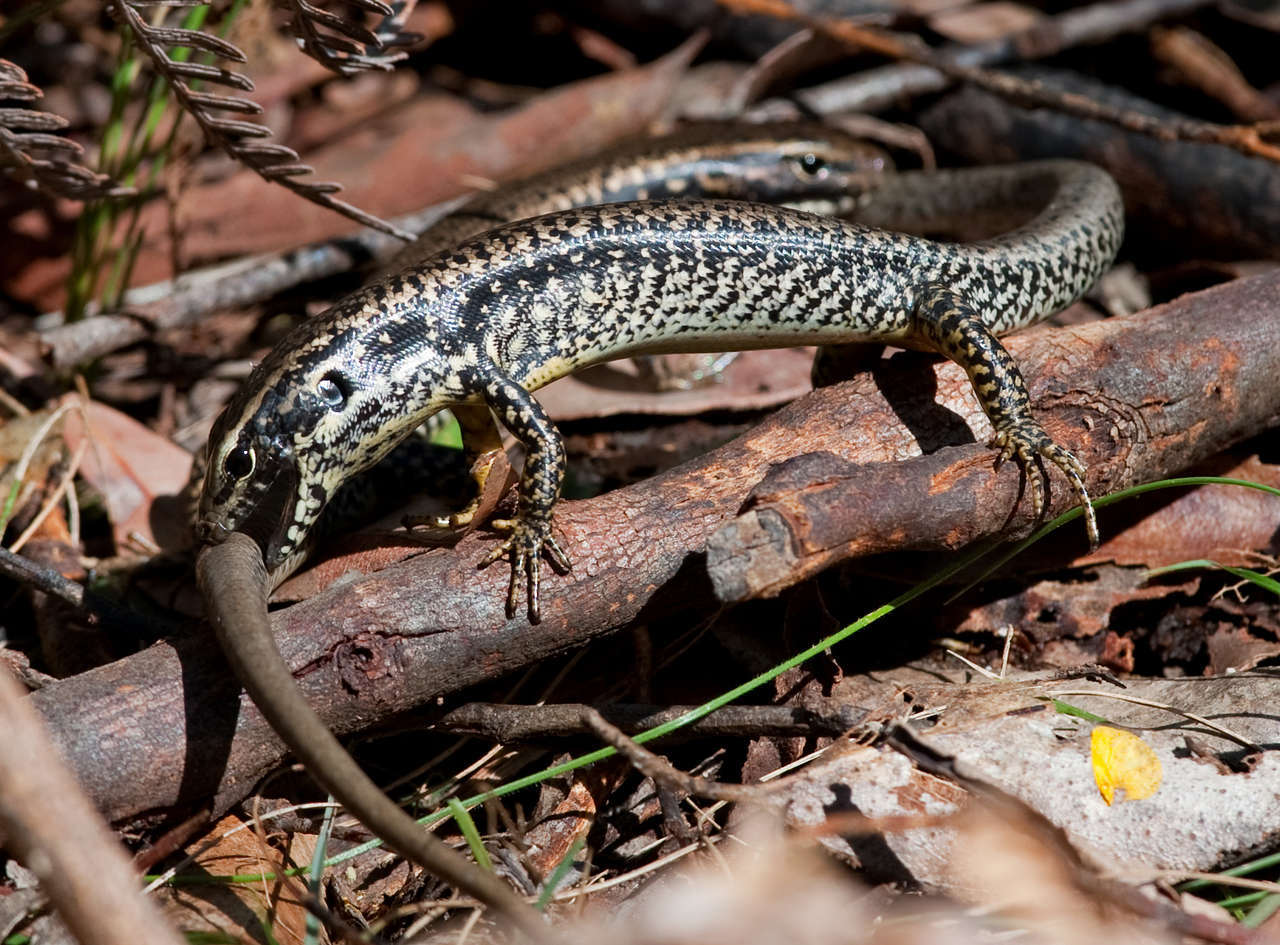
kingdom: Animalia
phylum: Chordata
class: Squamata
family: Scincidae
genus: Eulamprus
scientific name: Eulamprus heatwolei
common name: Warm-temperate water-skink
